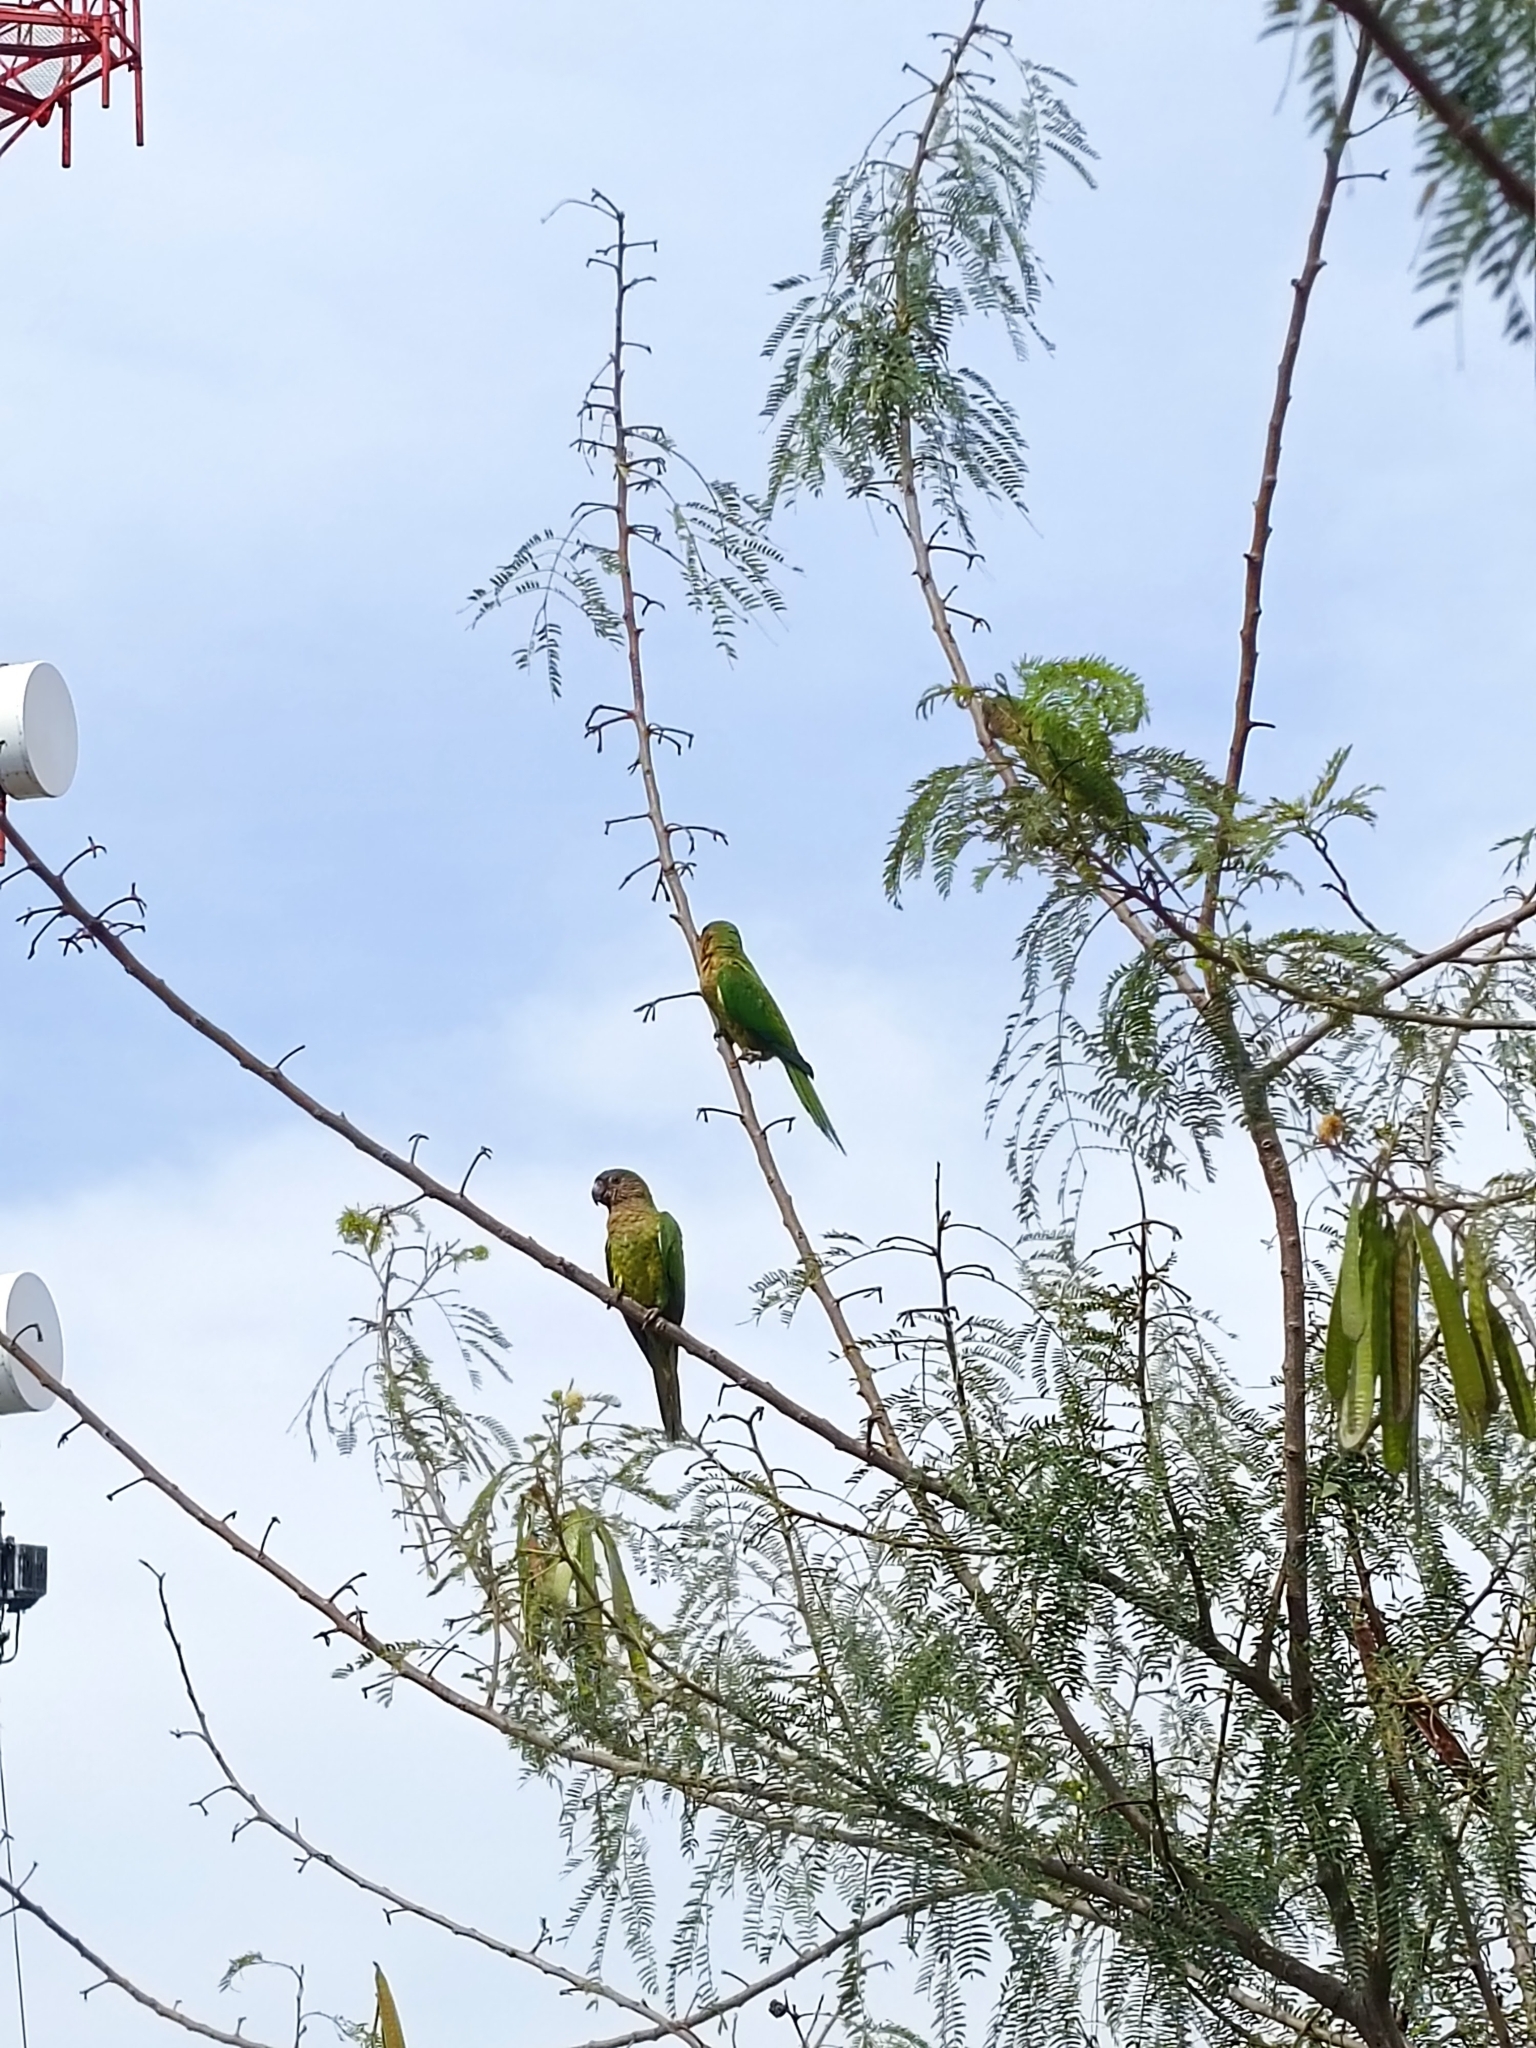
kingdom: Animalia
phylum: Chordata
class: Aves
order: Psittaciformes
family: Psittacidae
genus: Aratinga
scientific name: Aratinga pertinax
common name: Brown-throated parakeet
